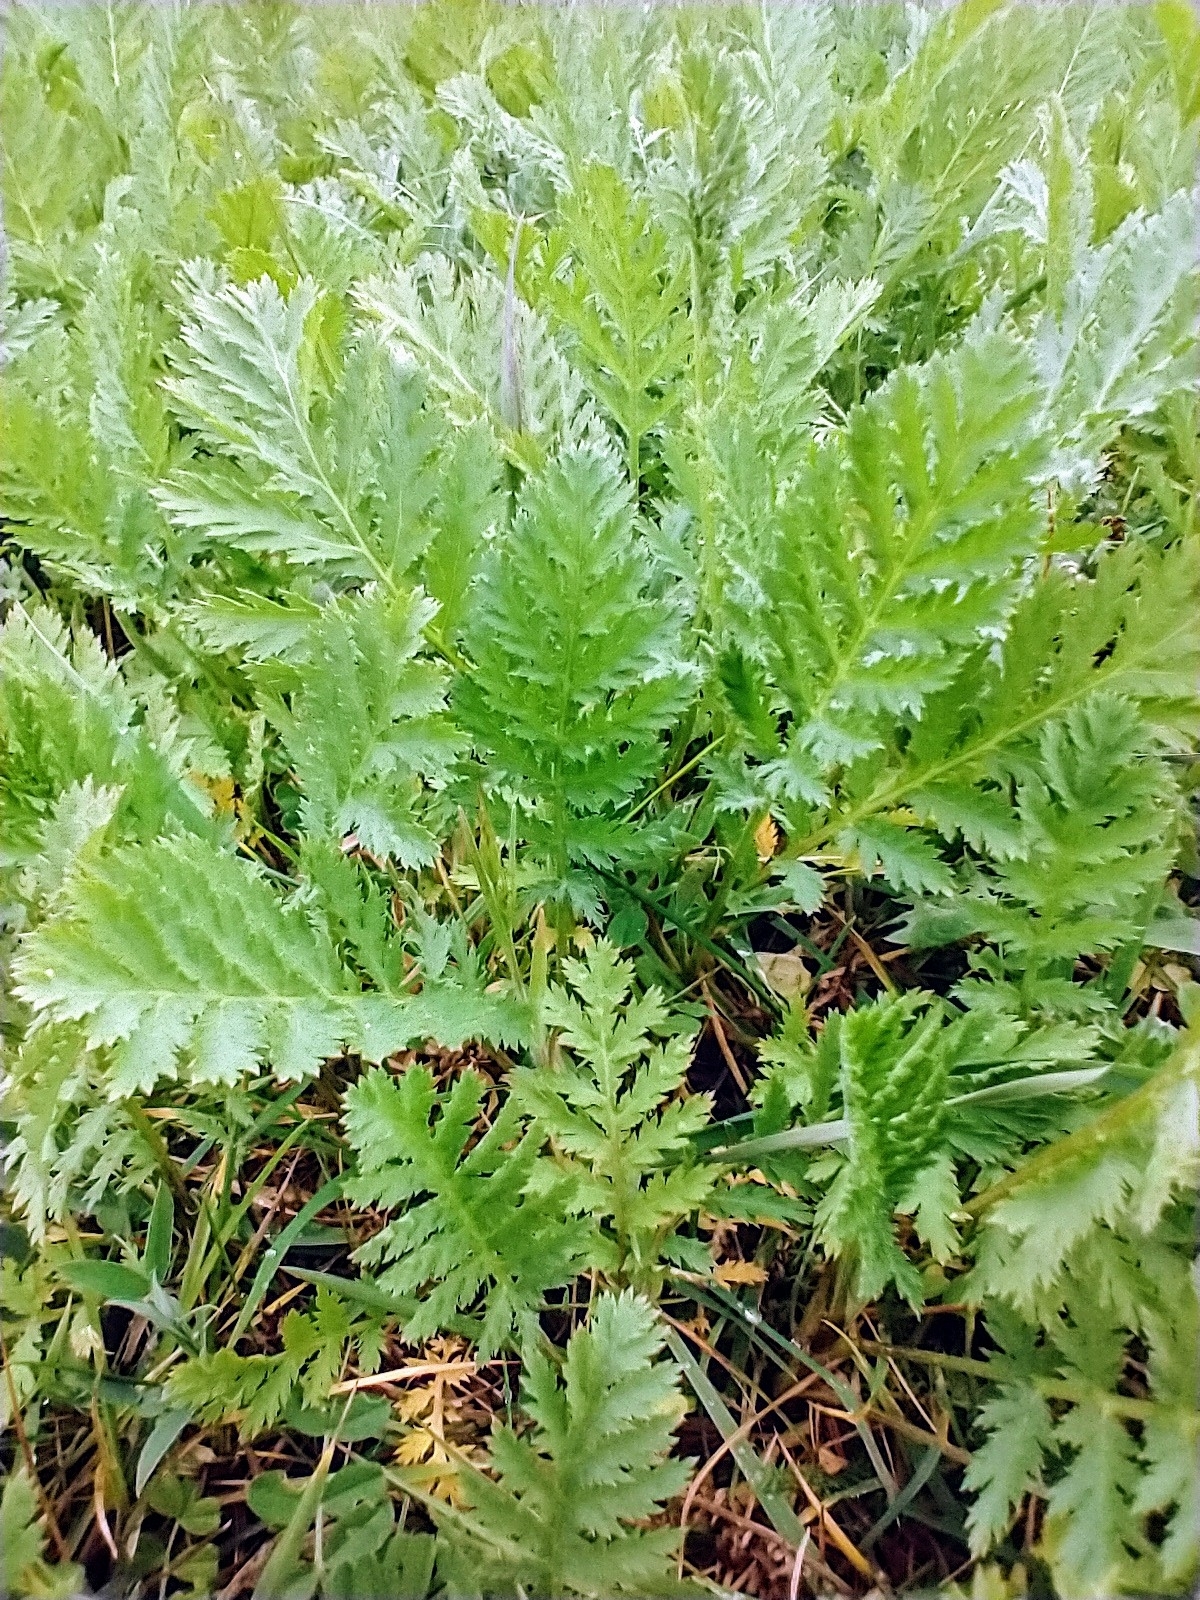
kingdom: Plantae
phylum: Tracheophyta
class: Magnoliopsida
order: Asterales
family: Asteraceae
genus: Tanacetum
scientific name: Tanacetum vulgare
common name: Common tansy
